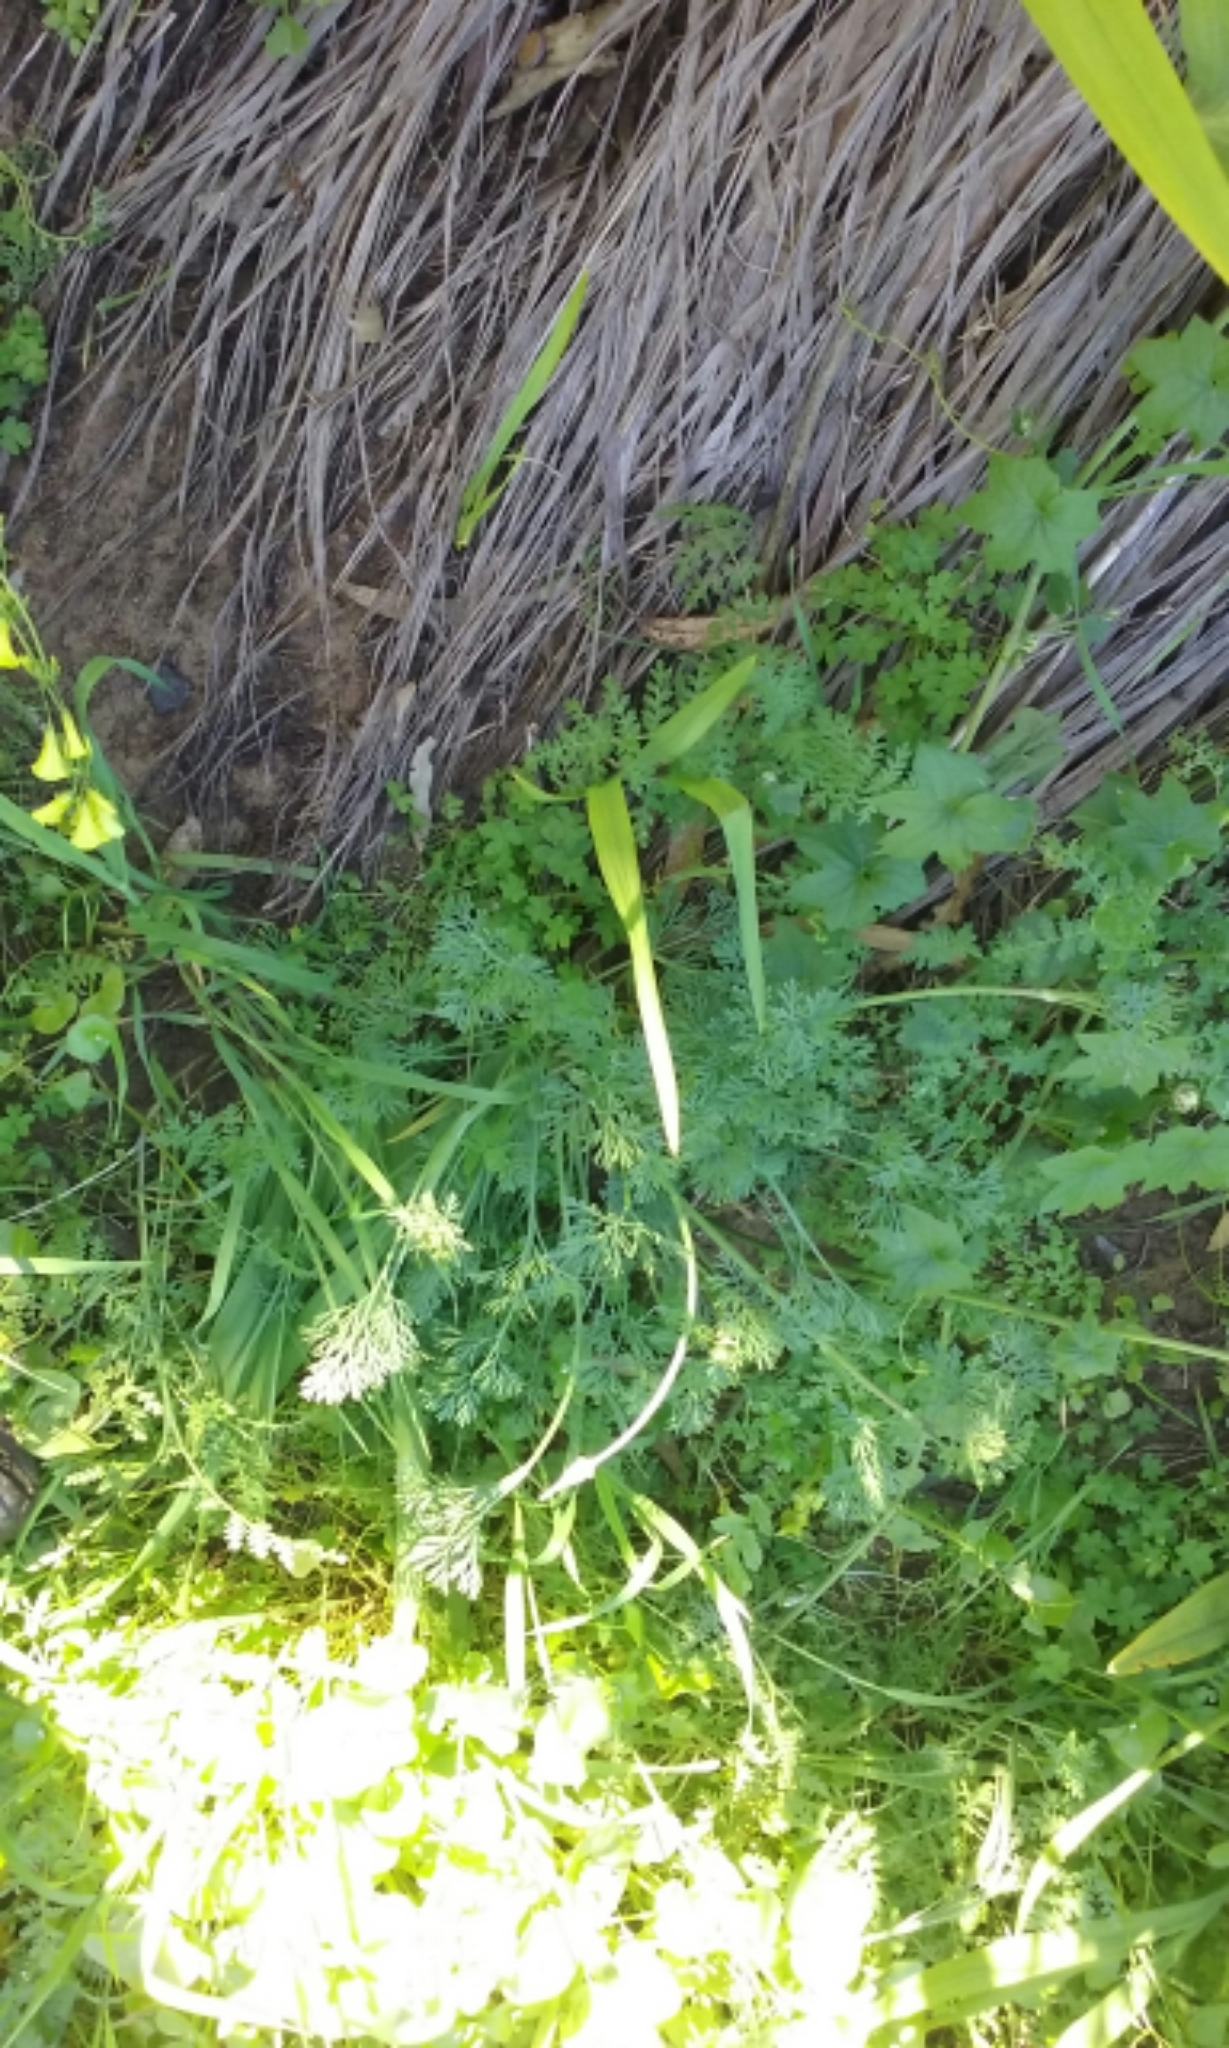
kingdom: Plantae
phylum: Tracheophyta
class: Magnoliopsida
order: Ranunculales
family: Papaveraceae
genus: Eschscholzia
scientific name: Eschscholzia californica
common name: California poppy
